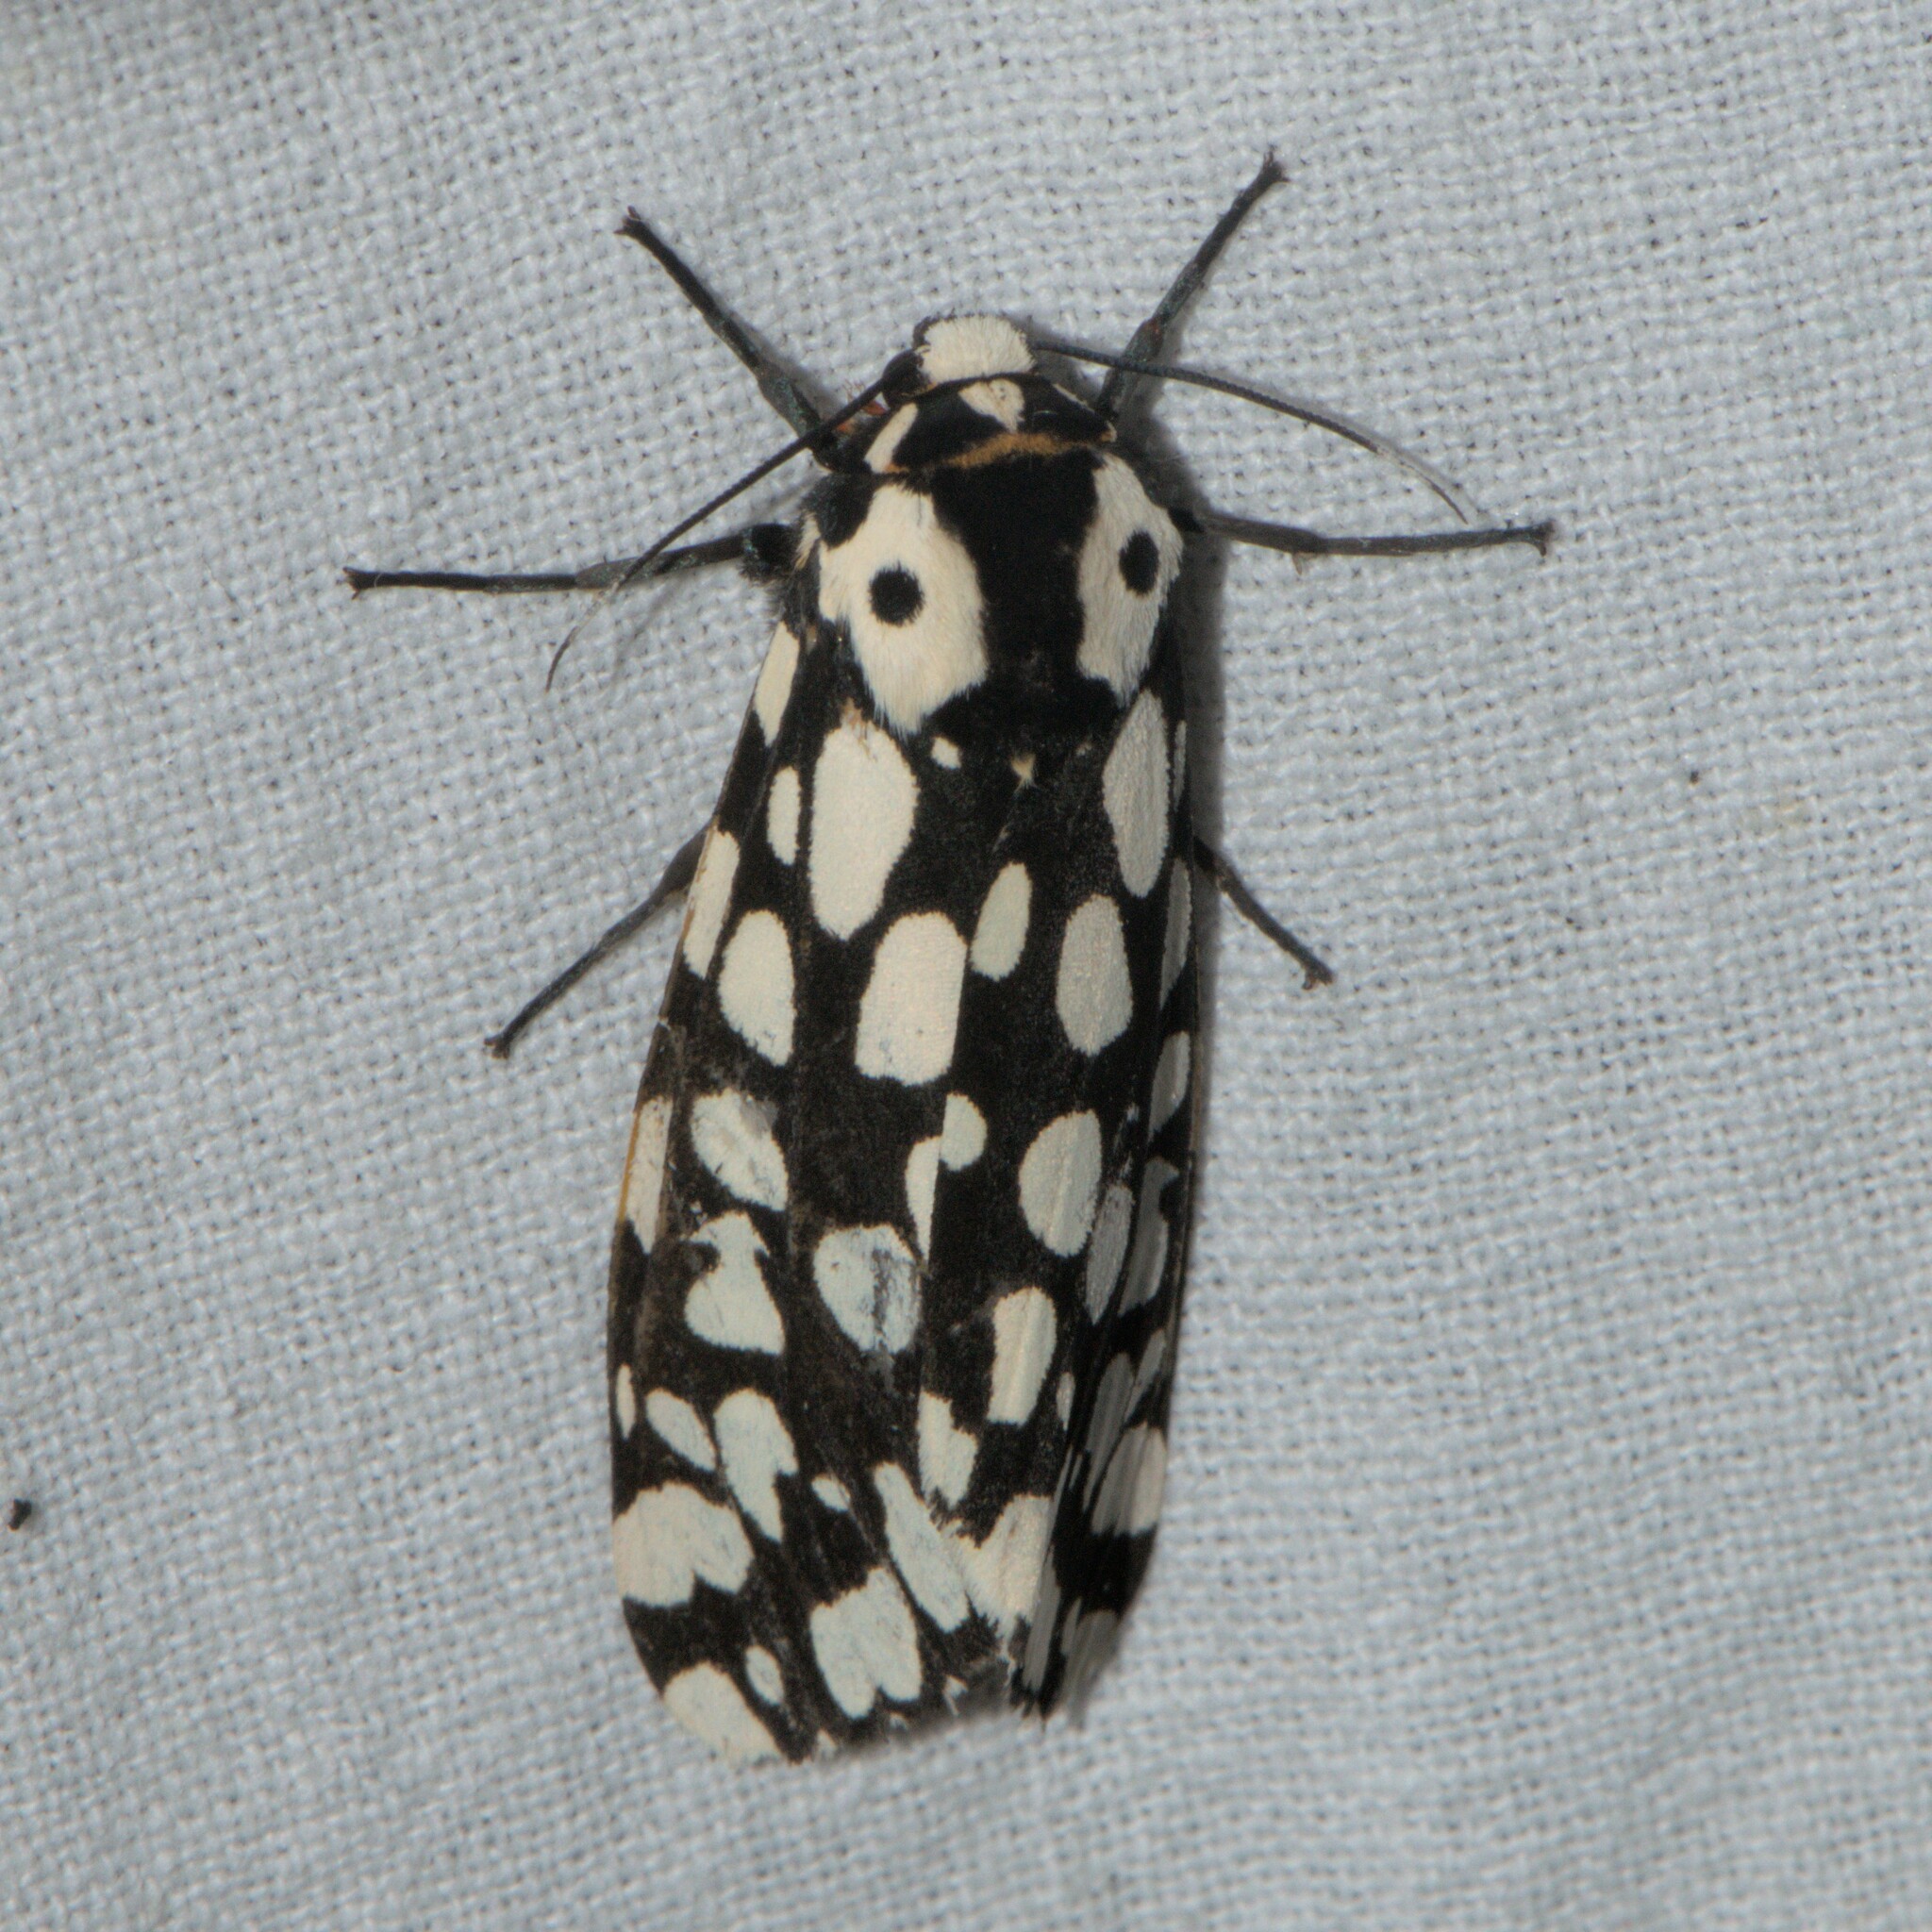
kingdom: Animalia
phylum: Arthropoda
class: Insecta
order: Lepidoptera
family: Erebidae
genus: Alphaea
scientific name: Alphaea impleta
